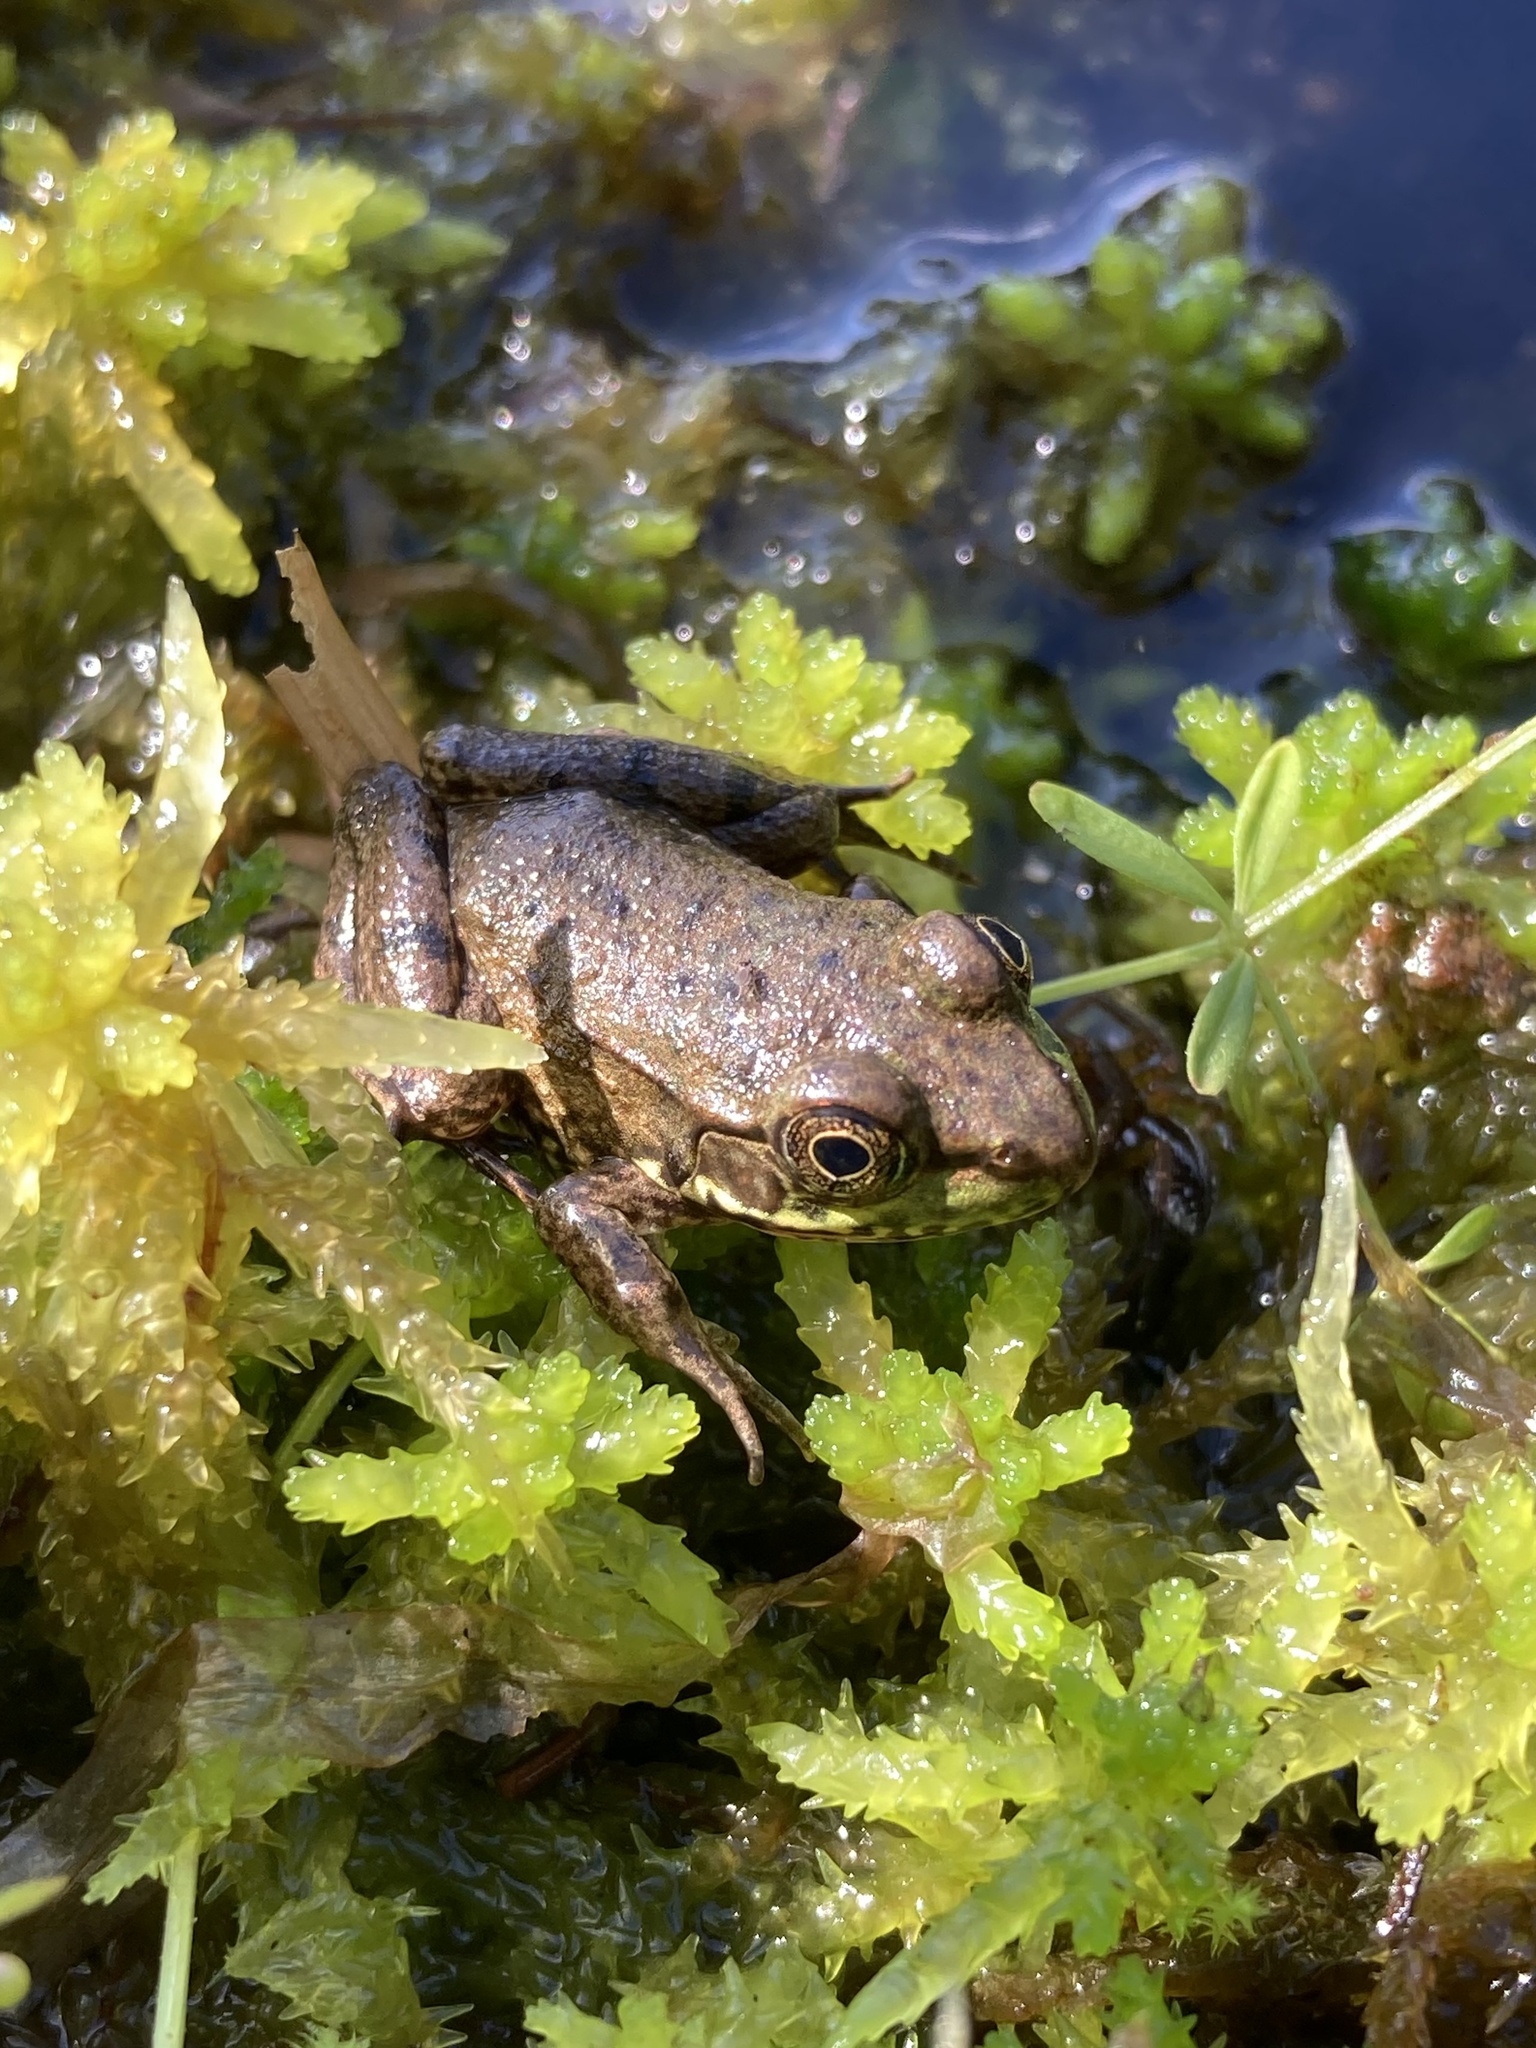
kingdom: Animalia
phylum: Chordata
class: Amphibia
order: Anura
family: Ranidae
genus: Lithobates
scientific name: Lithobates clamitans
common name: Green frog
